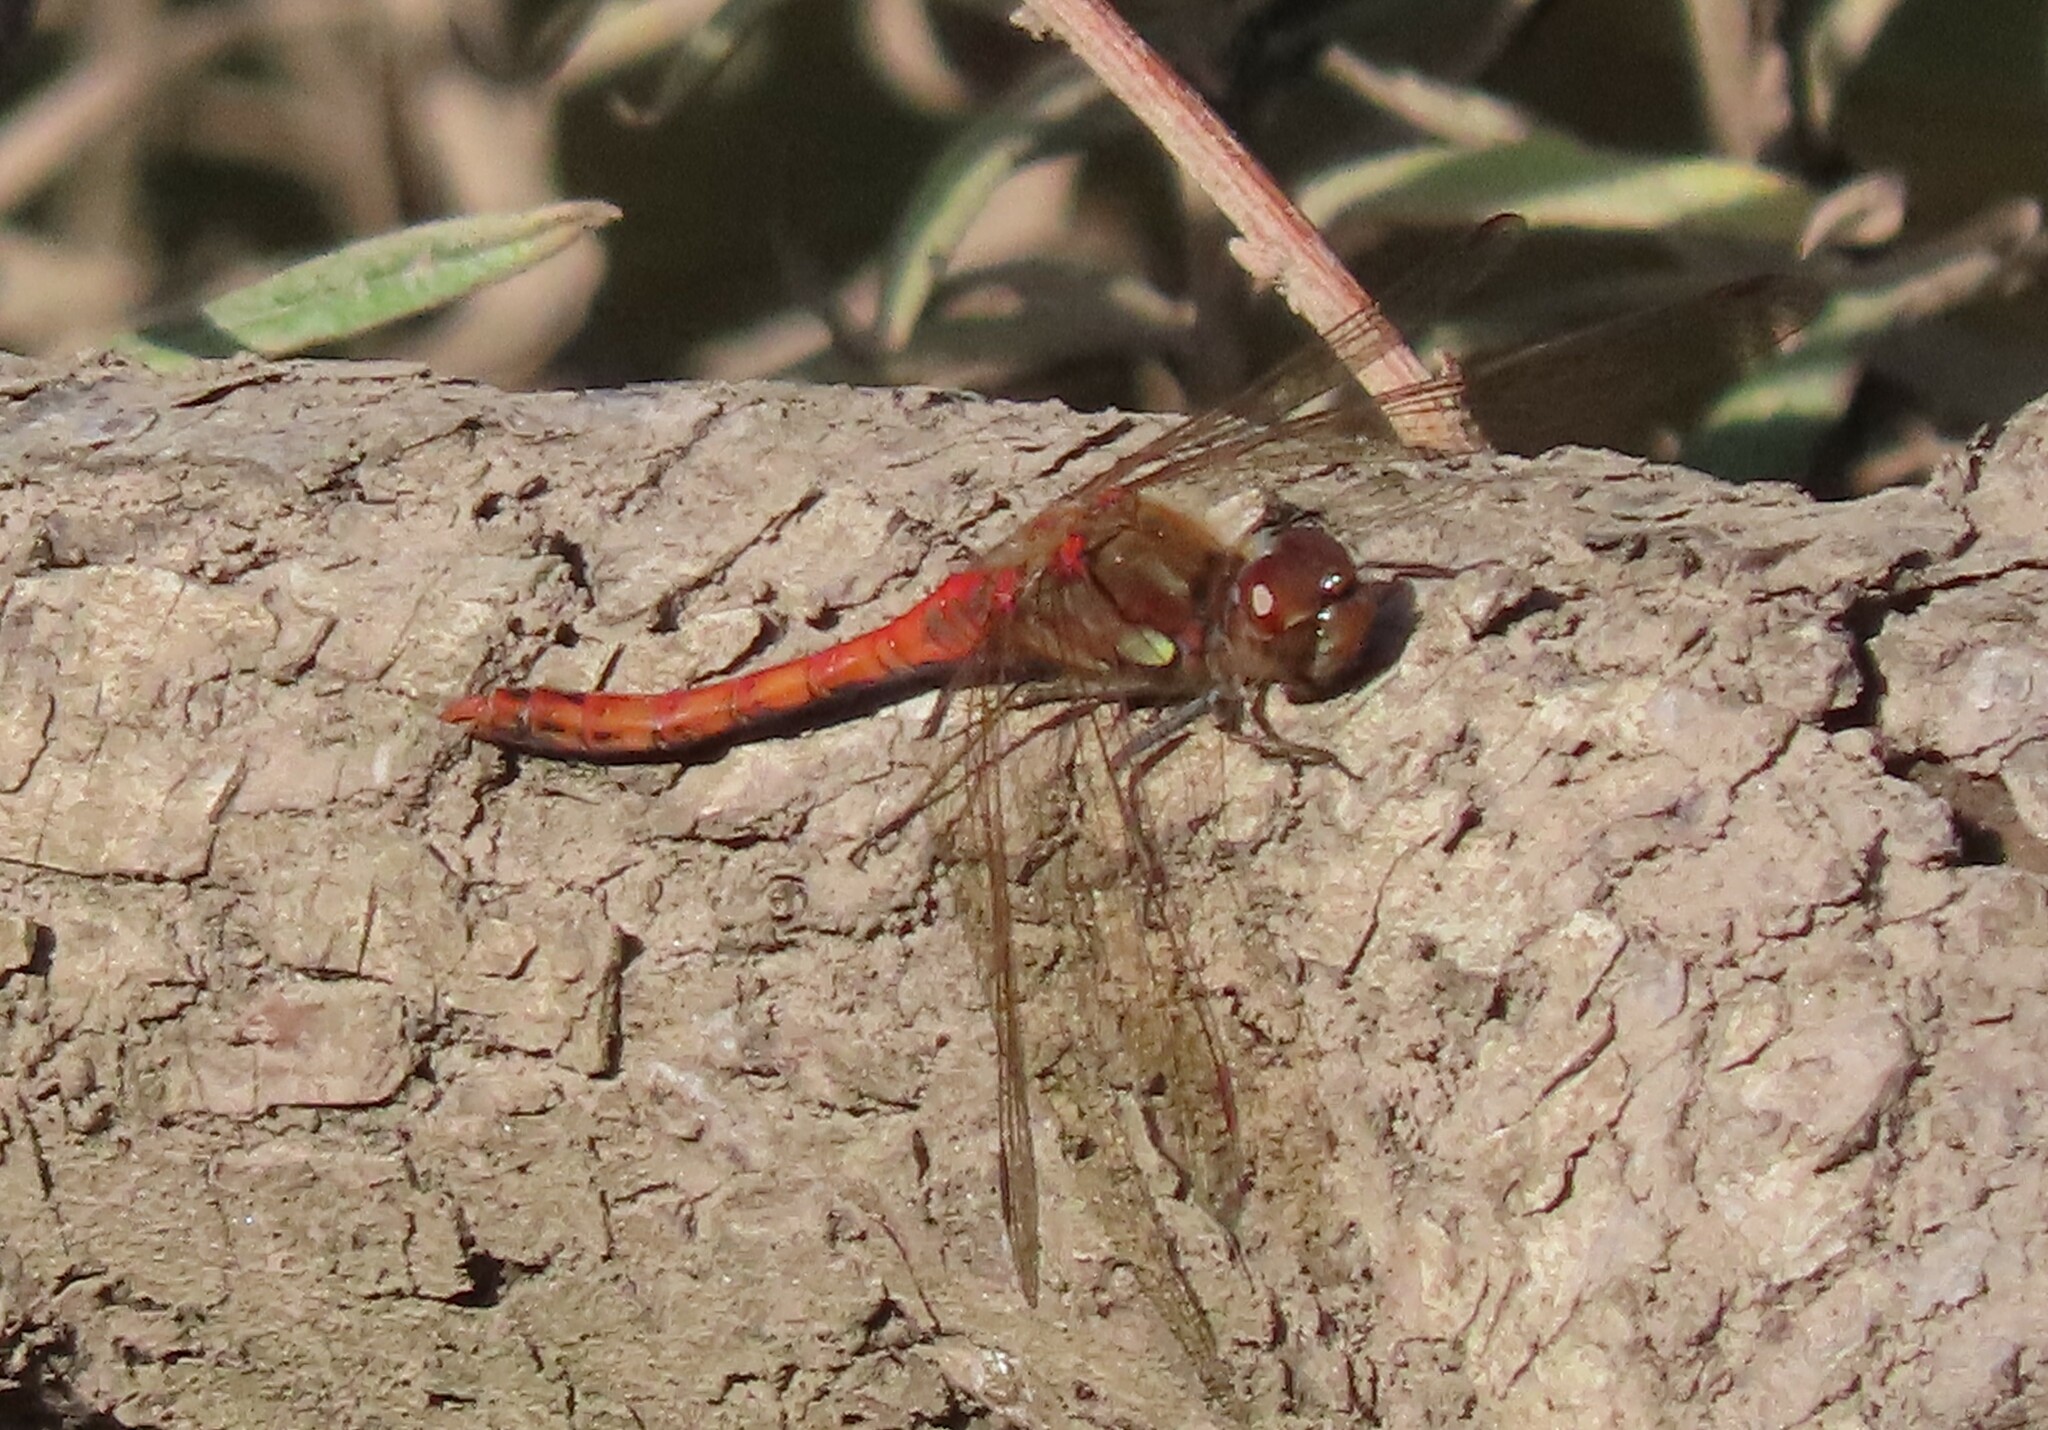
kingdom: Animalia
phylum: Arthropoda
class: Insecta
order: Odonata
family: Libellulidae
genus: Sympetrum
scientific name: Sympetrum striolatum
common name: Common darter
